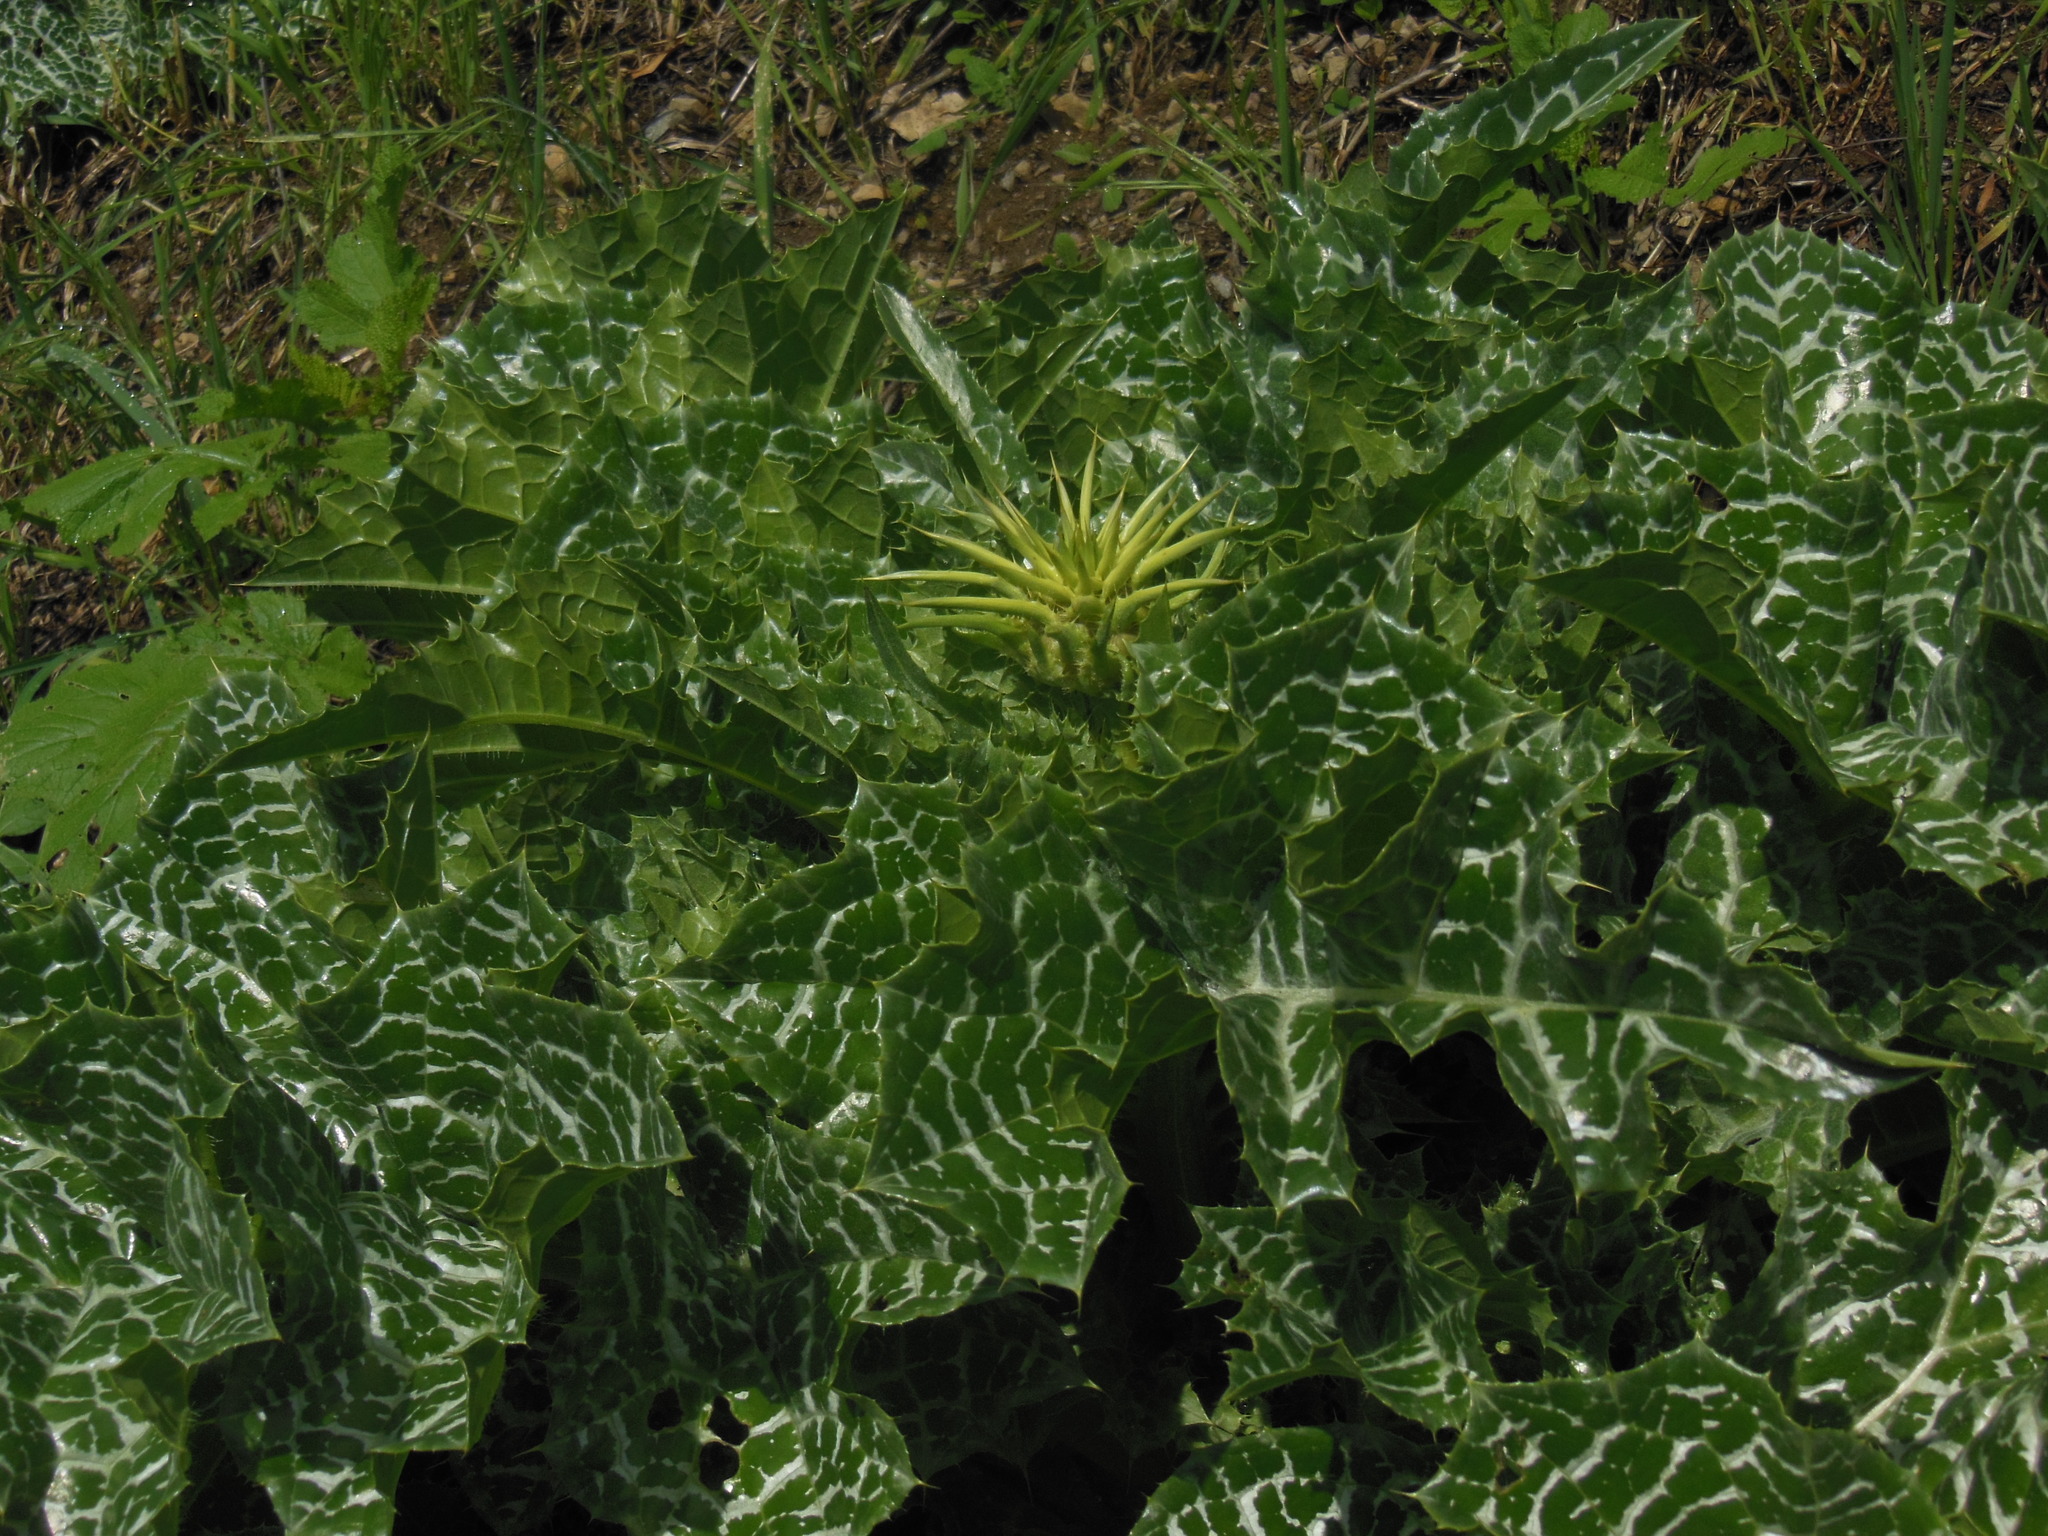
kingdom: Plantae
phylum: Tracheophyta
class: Magnoliopsida
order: Asterales
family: Asteraceae
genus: Silybum
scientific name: Silybum marianum
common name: Milk thistle
